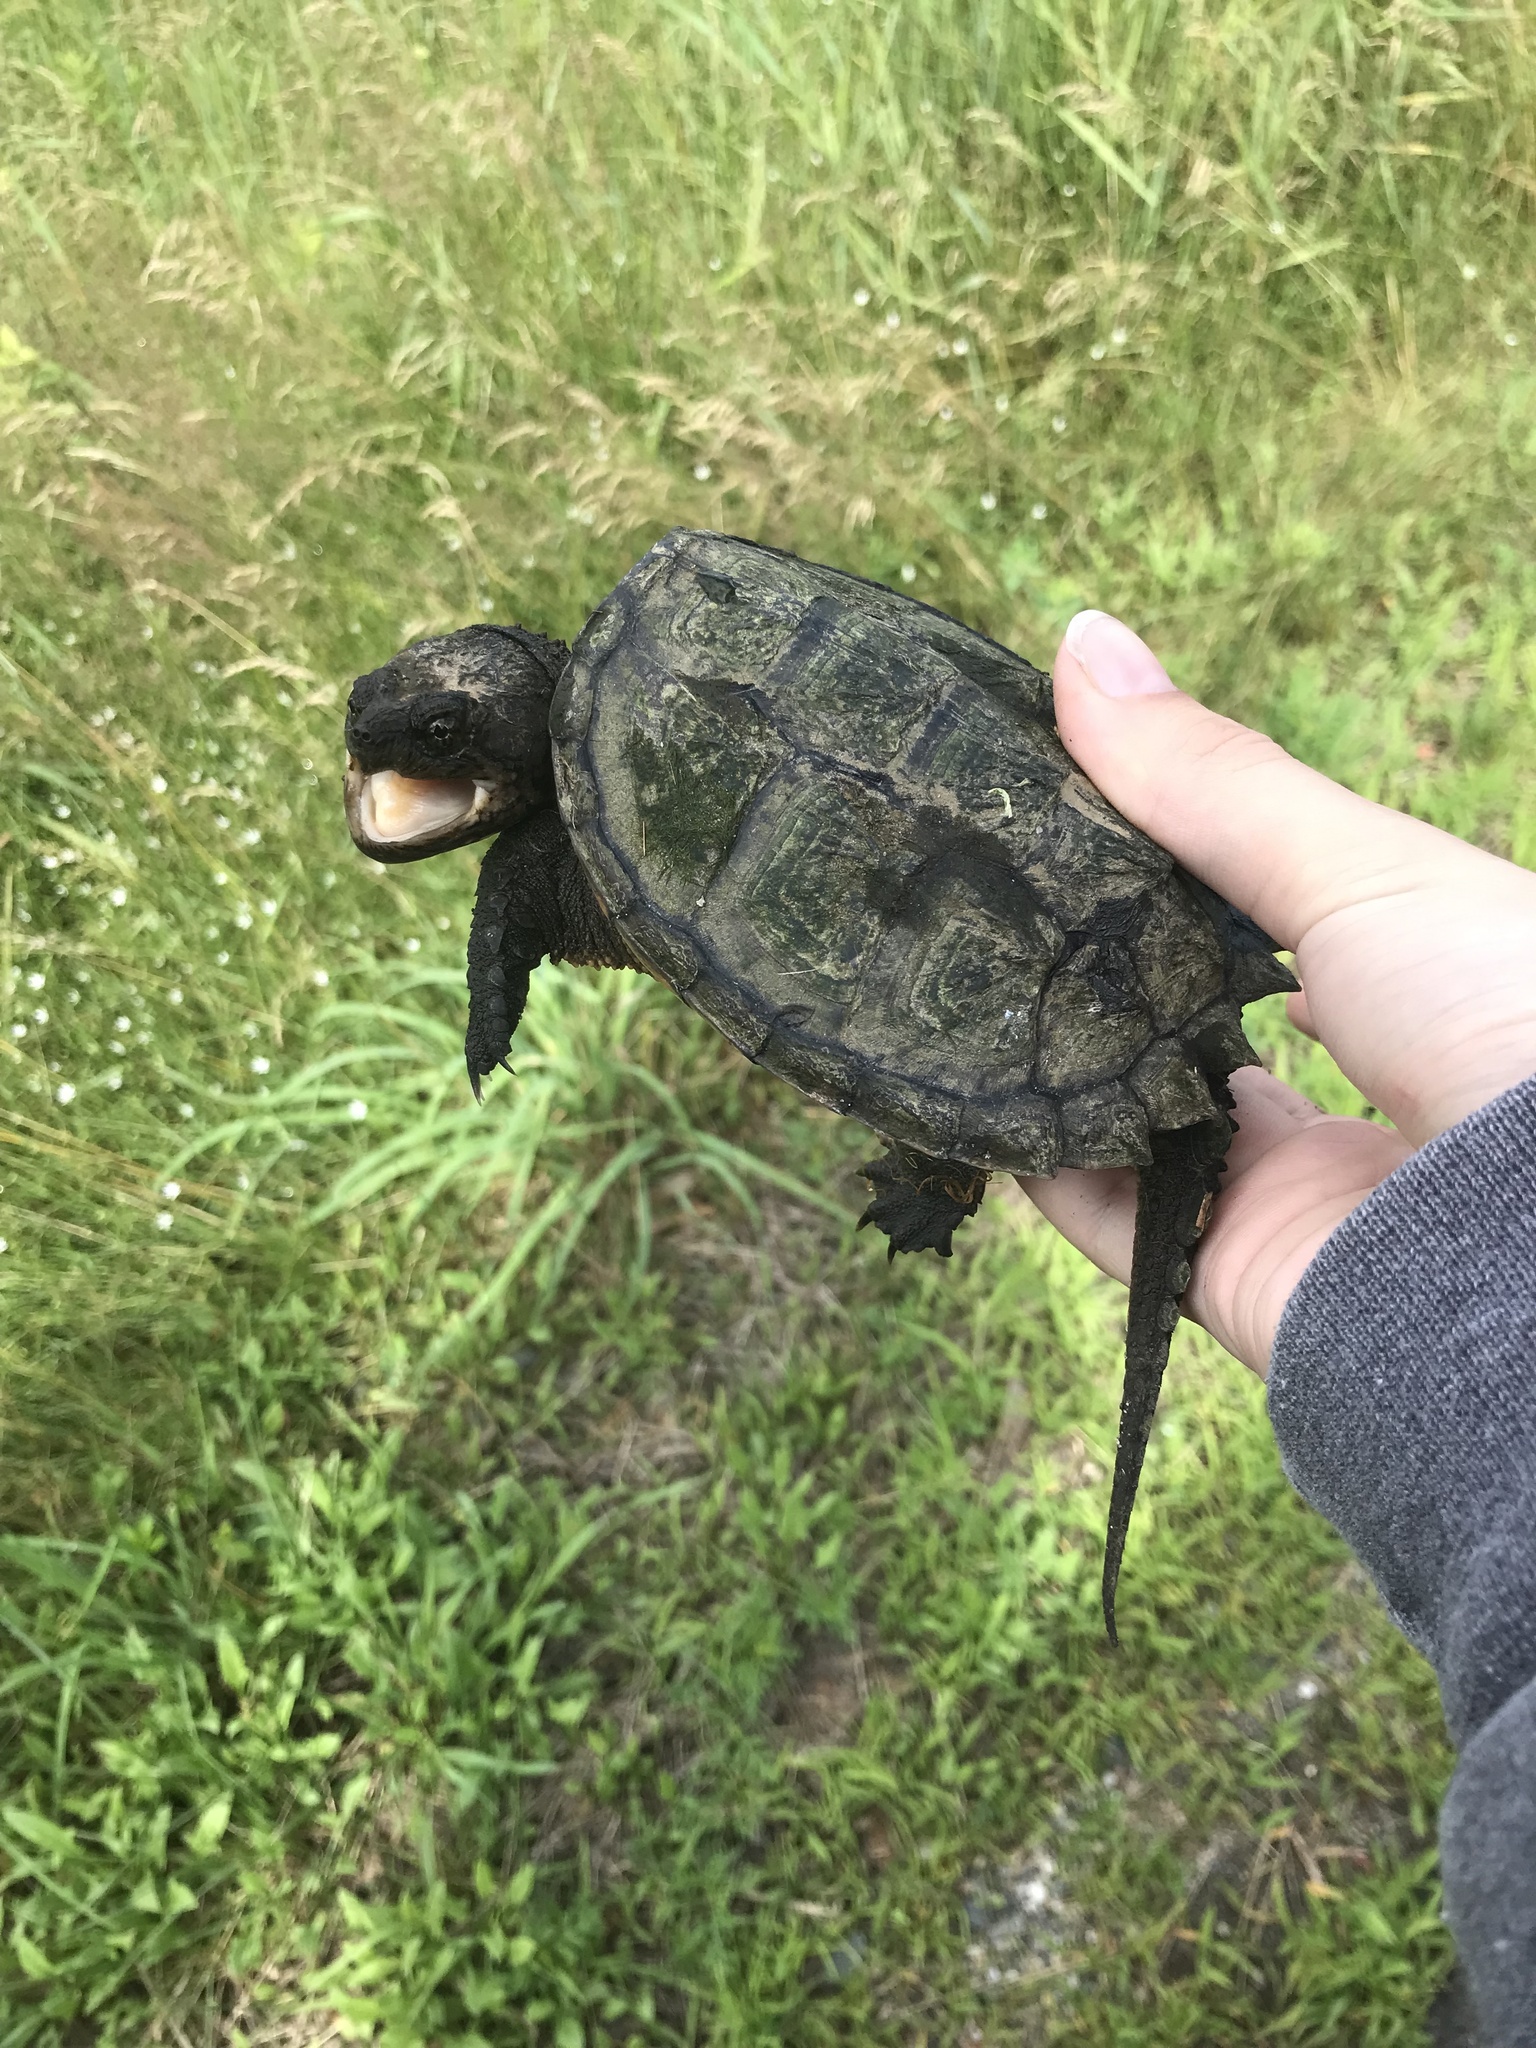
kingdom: Animalia
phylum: Chordata
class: Testudines
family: Chelydridae
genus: Chelydra
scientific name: Chelydra serpentina
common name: Common snapping turtle
